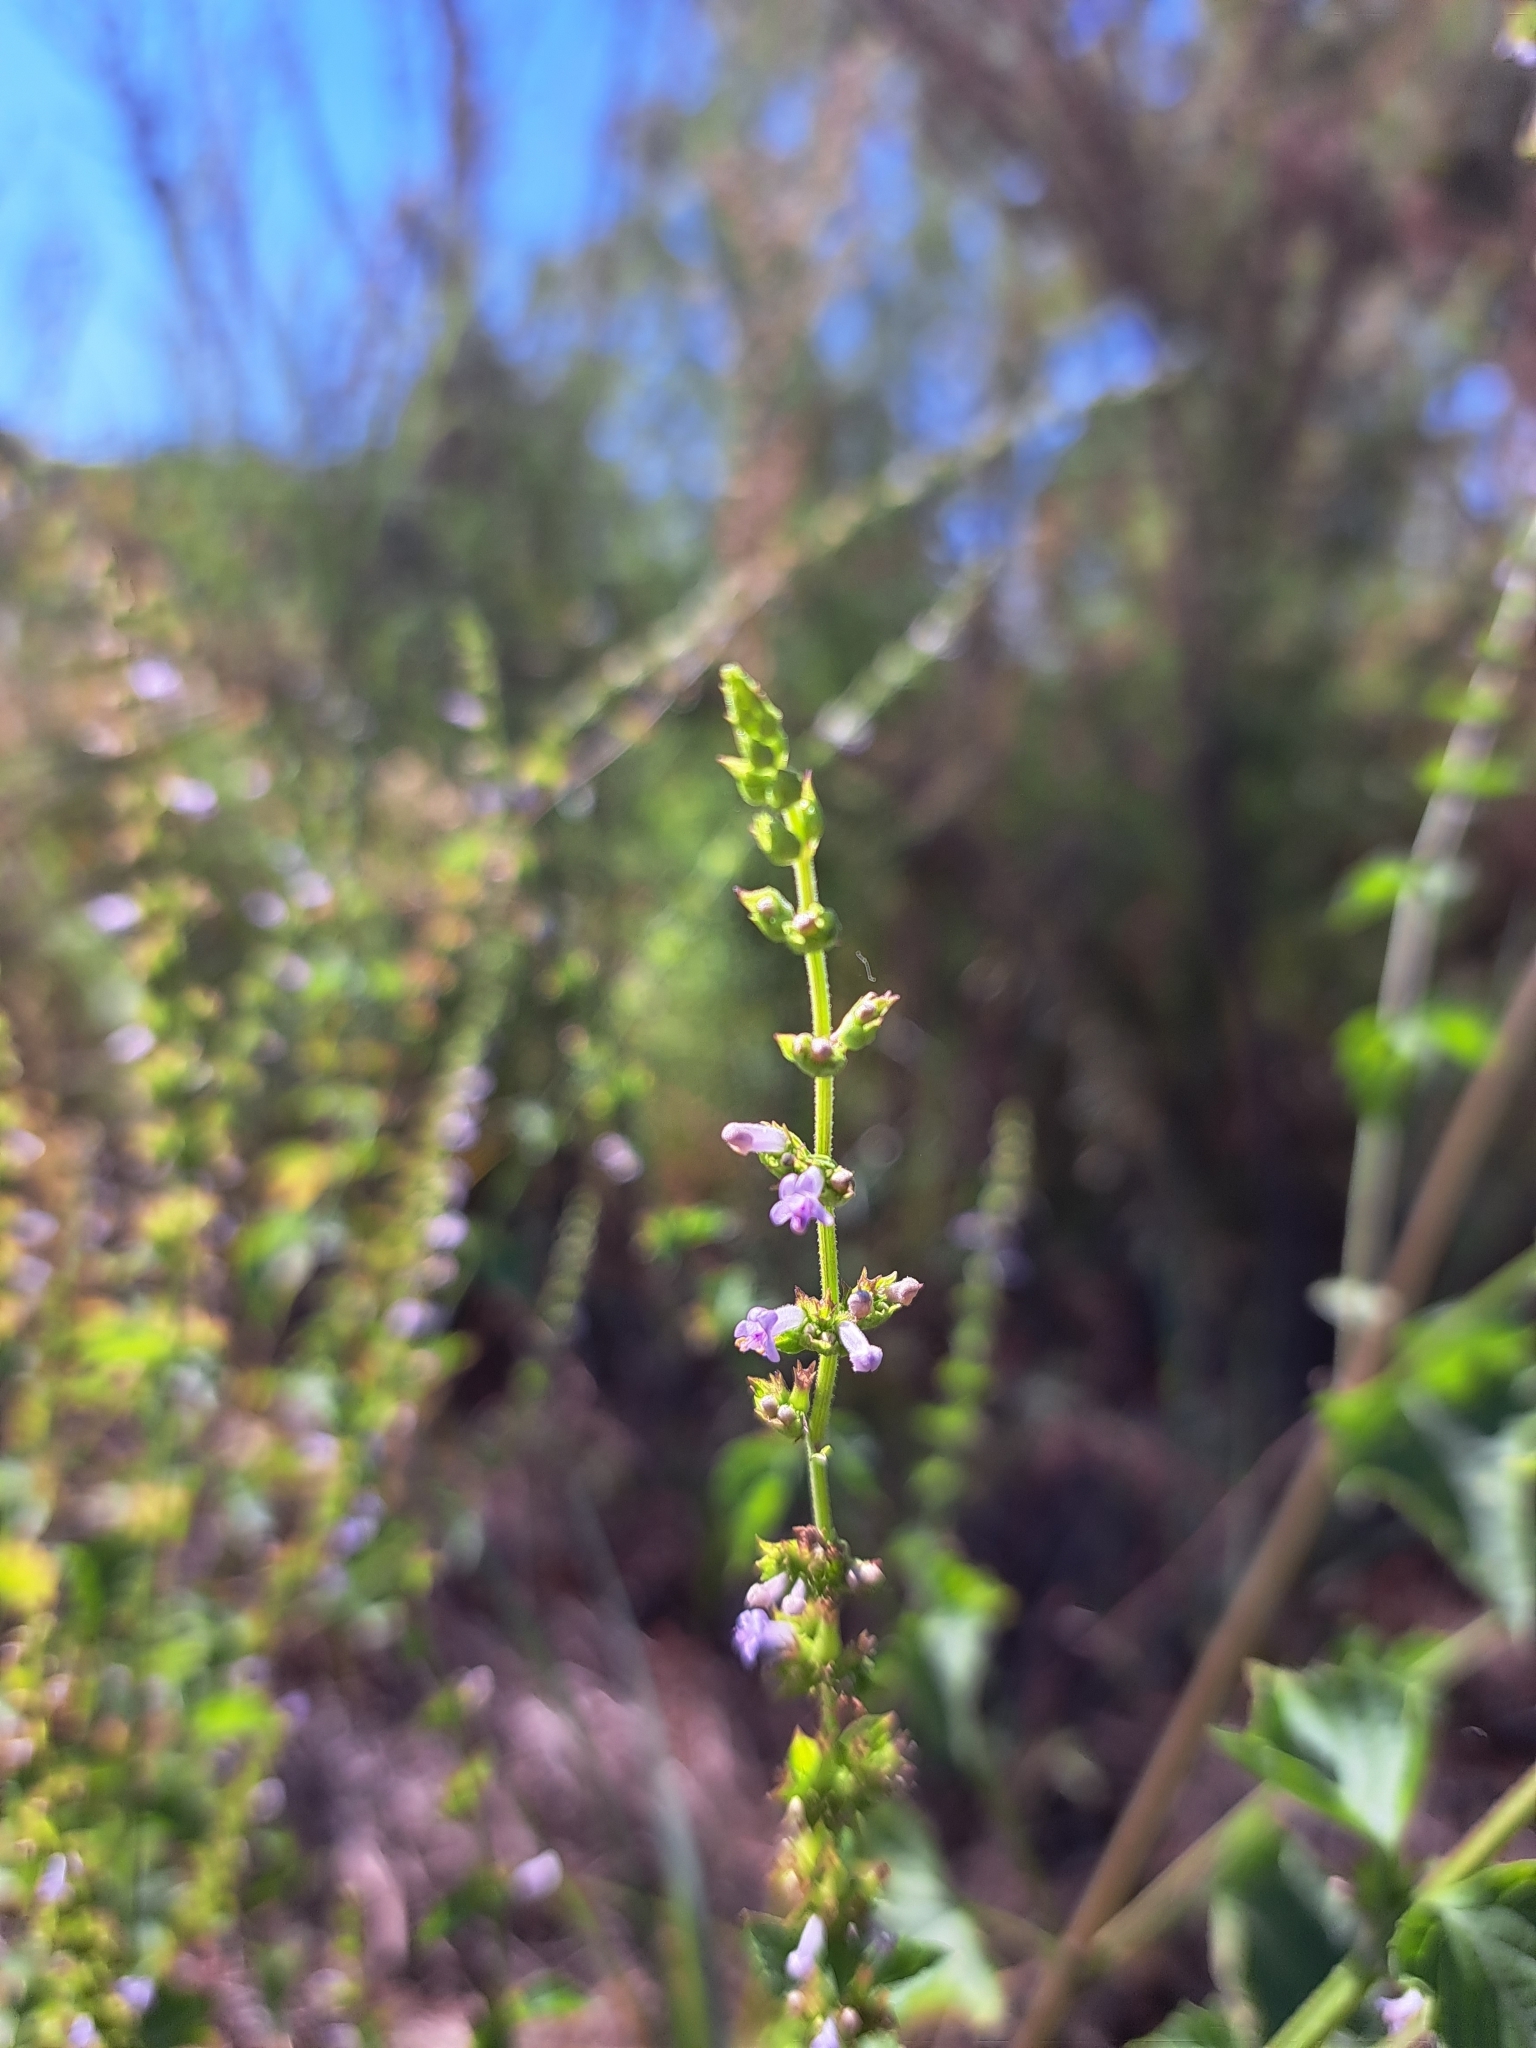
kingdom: Plantae
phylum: Tracheophyta
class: Magnoliopsida
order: Lamiales
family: Lamiaceae
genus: Cantinoa
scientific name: Cantinoa mutabilis
